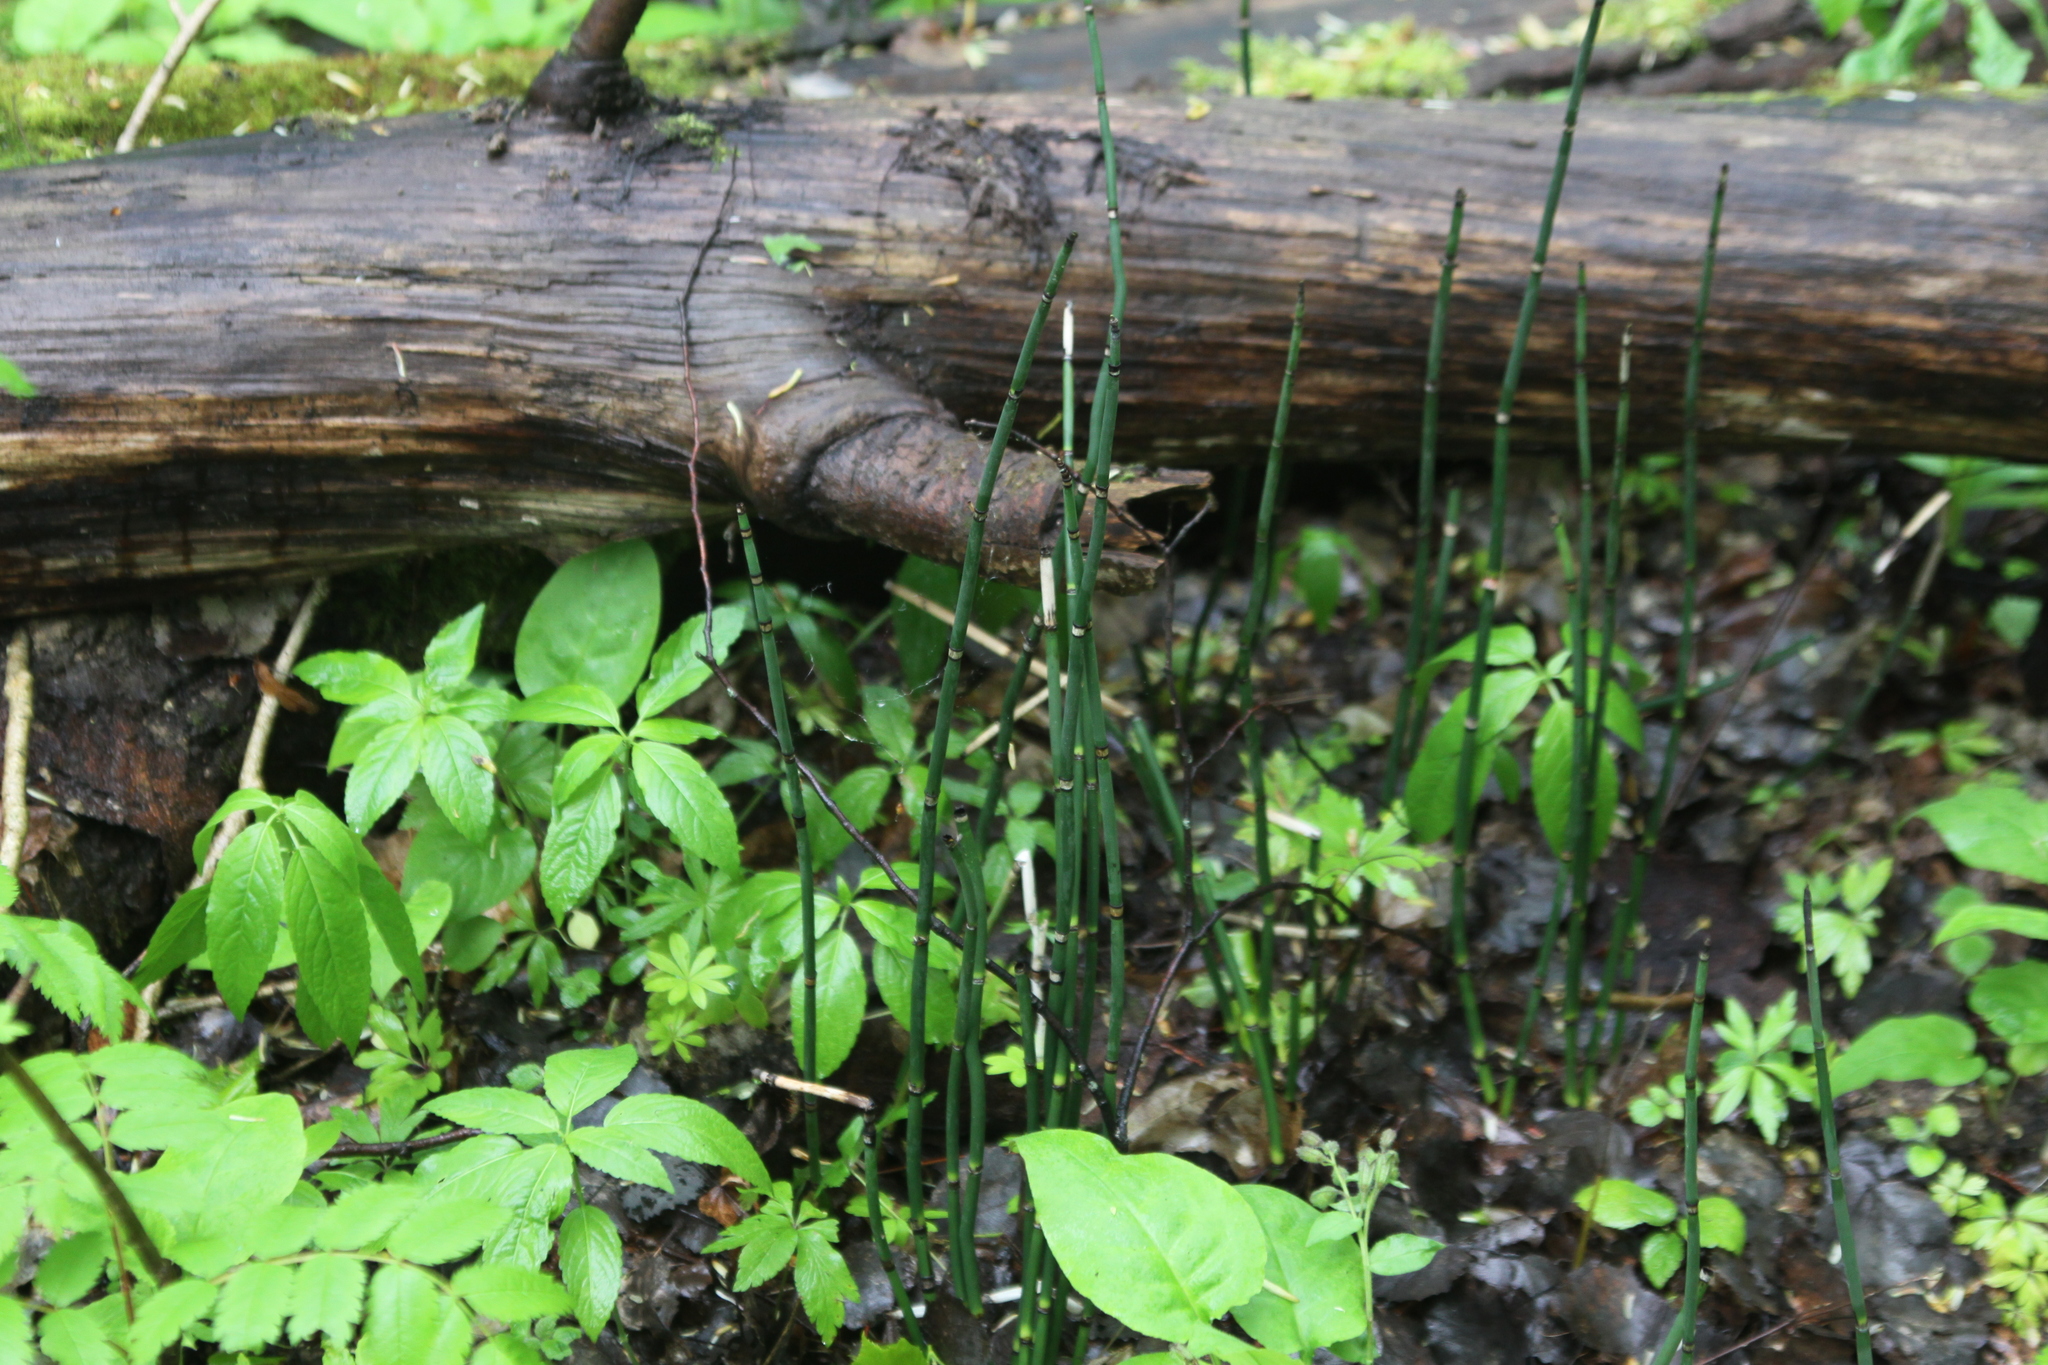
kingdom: Plantae
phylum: Tracheophyta
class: Polypodiopsida
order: Equisetales
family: Equisetaceae
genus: Equisetum
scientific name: Equisetum hyemale
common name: Rough horsetail
